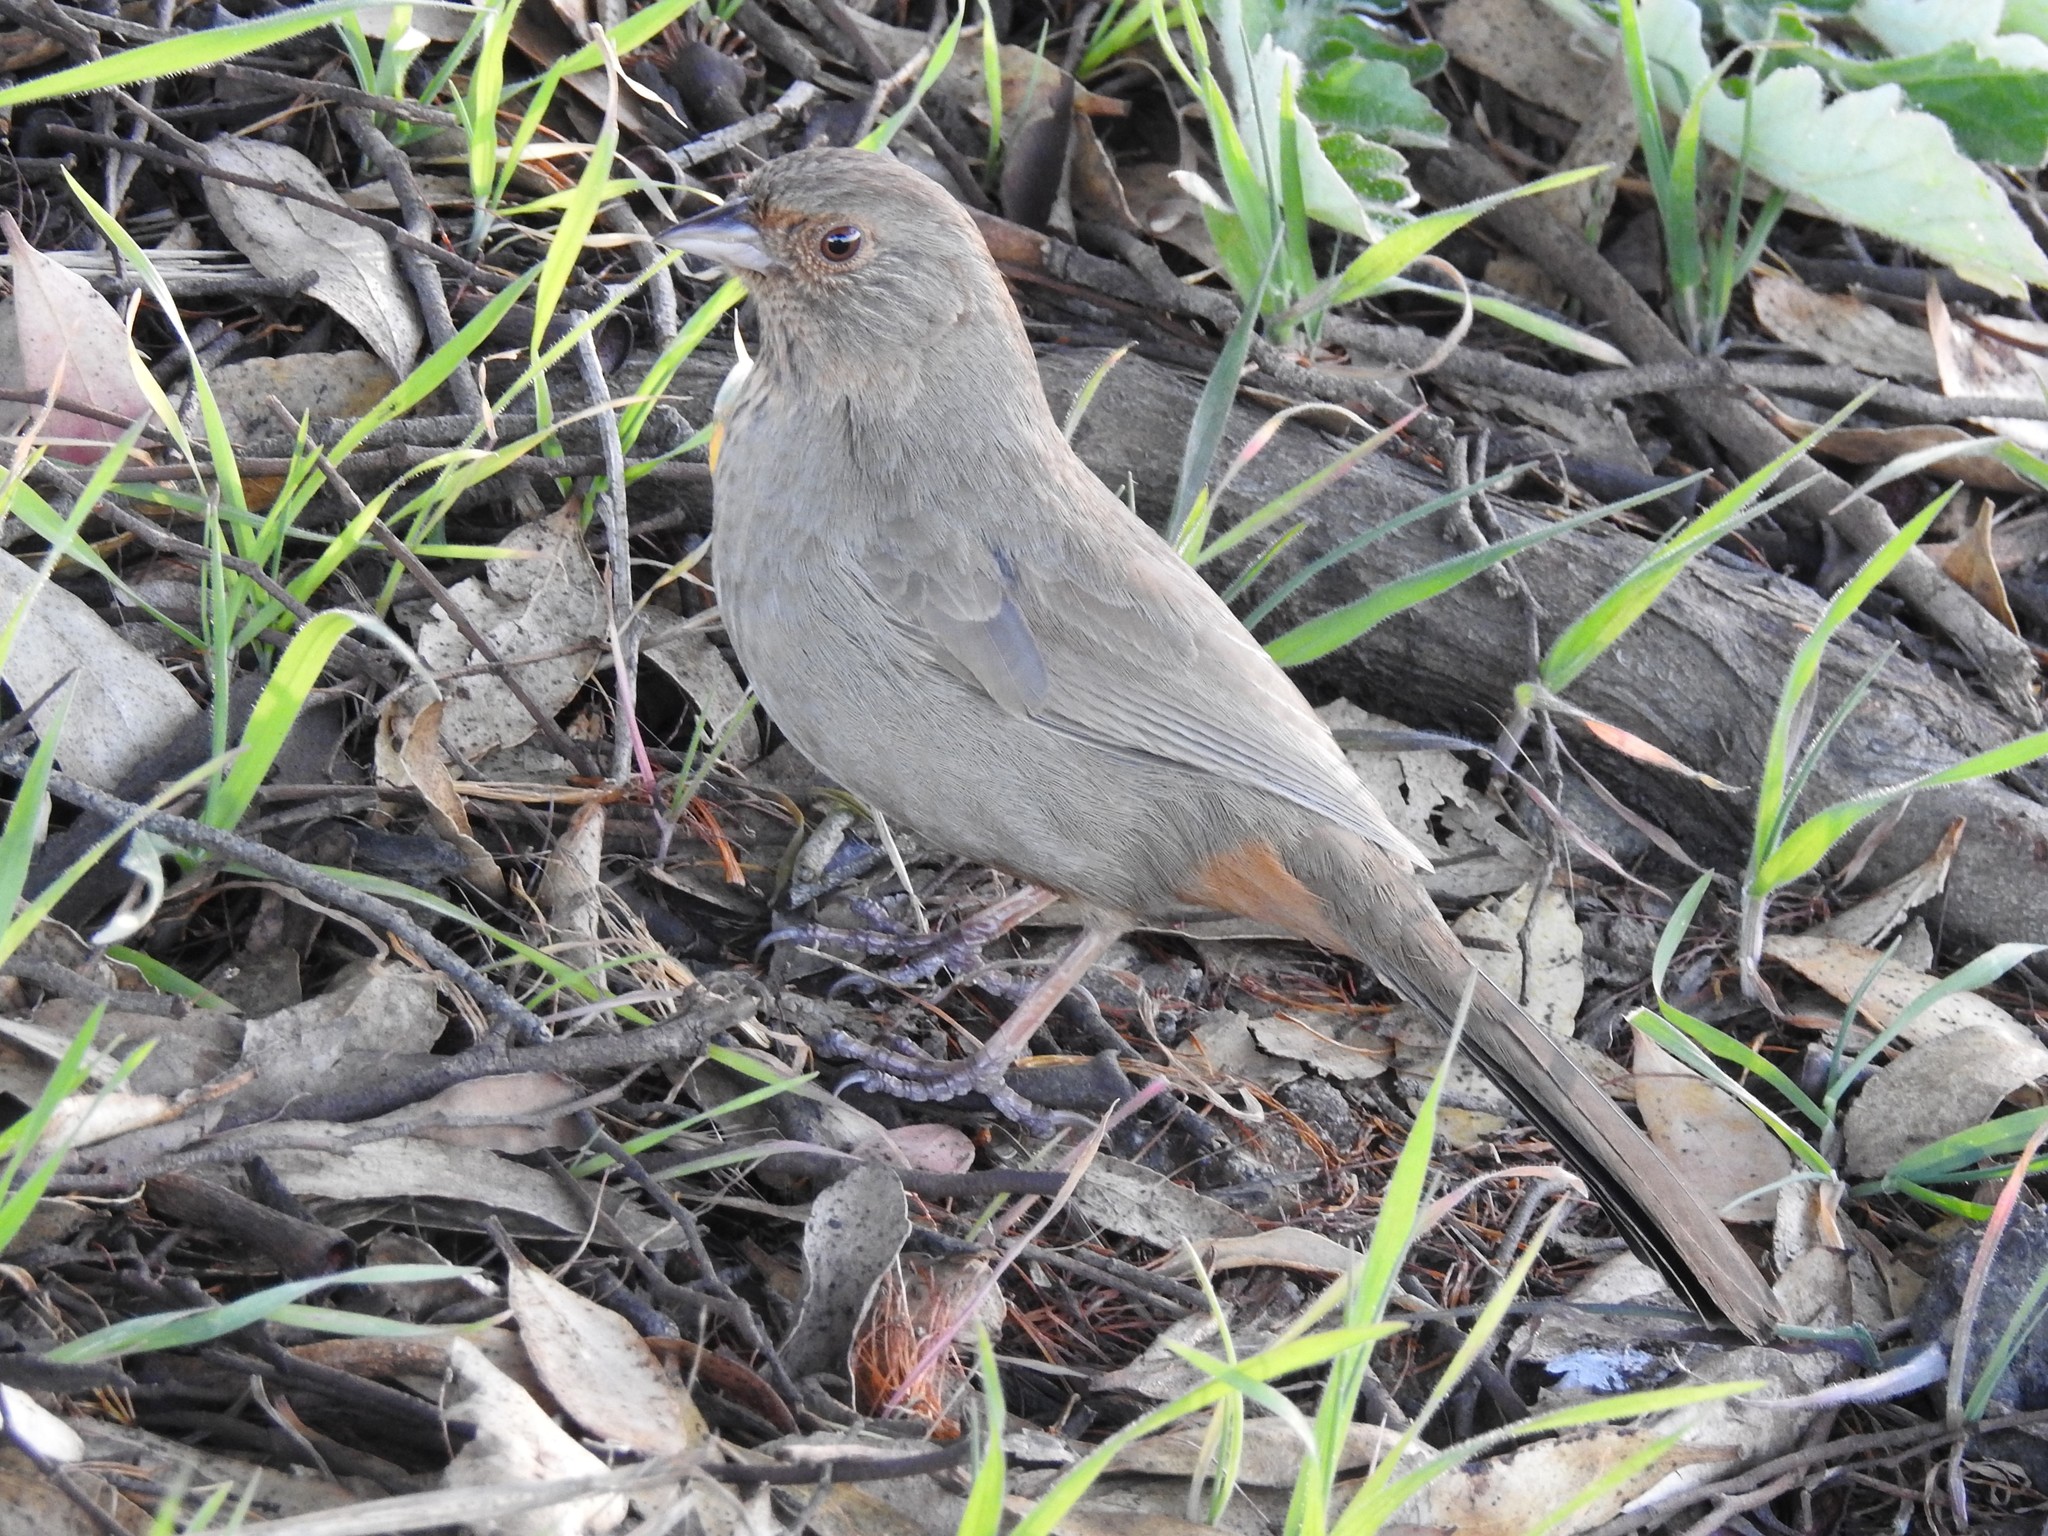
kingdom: Animalia
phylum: Chordata
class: Aves
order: Passeriformes
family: Passerellidae
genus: Melozone
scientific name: Melozone crissalis
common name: California towhee
